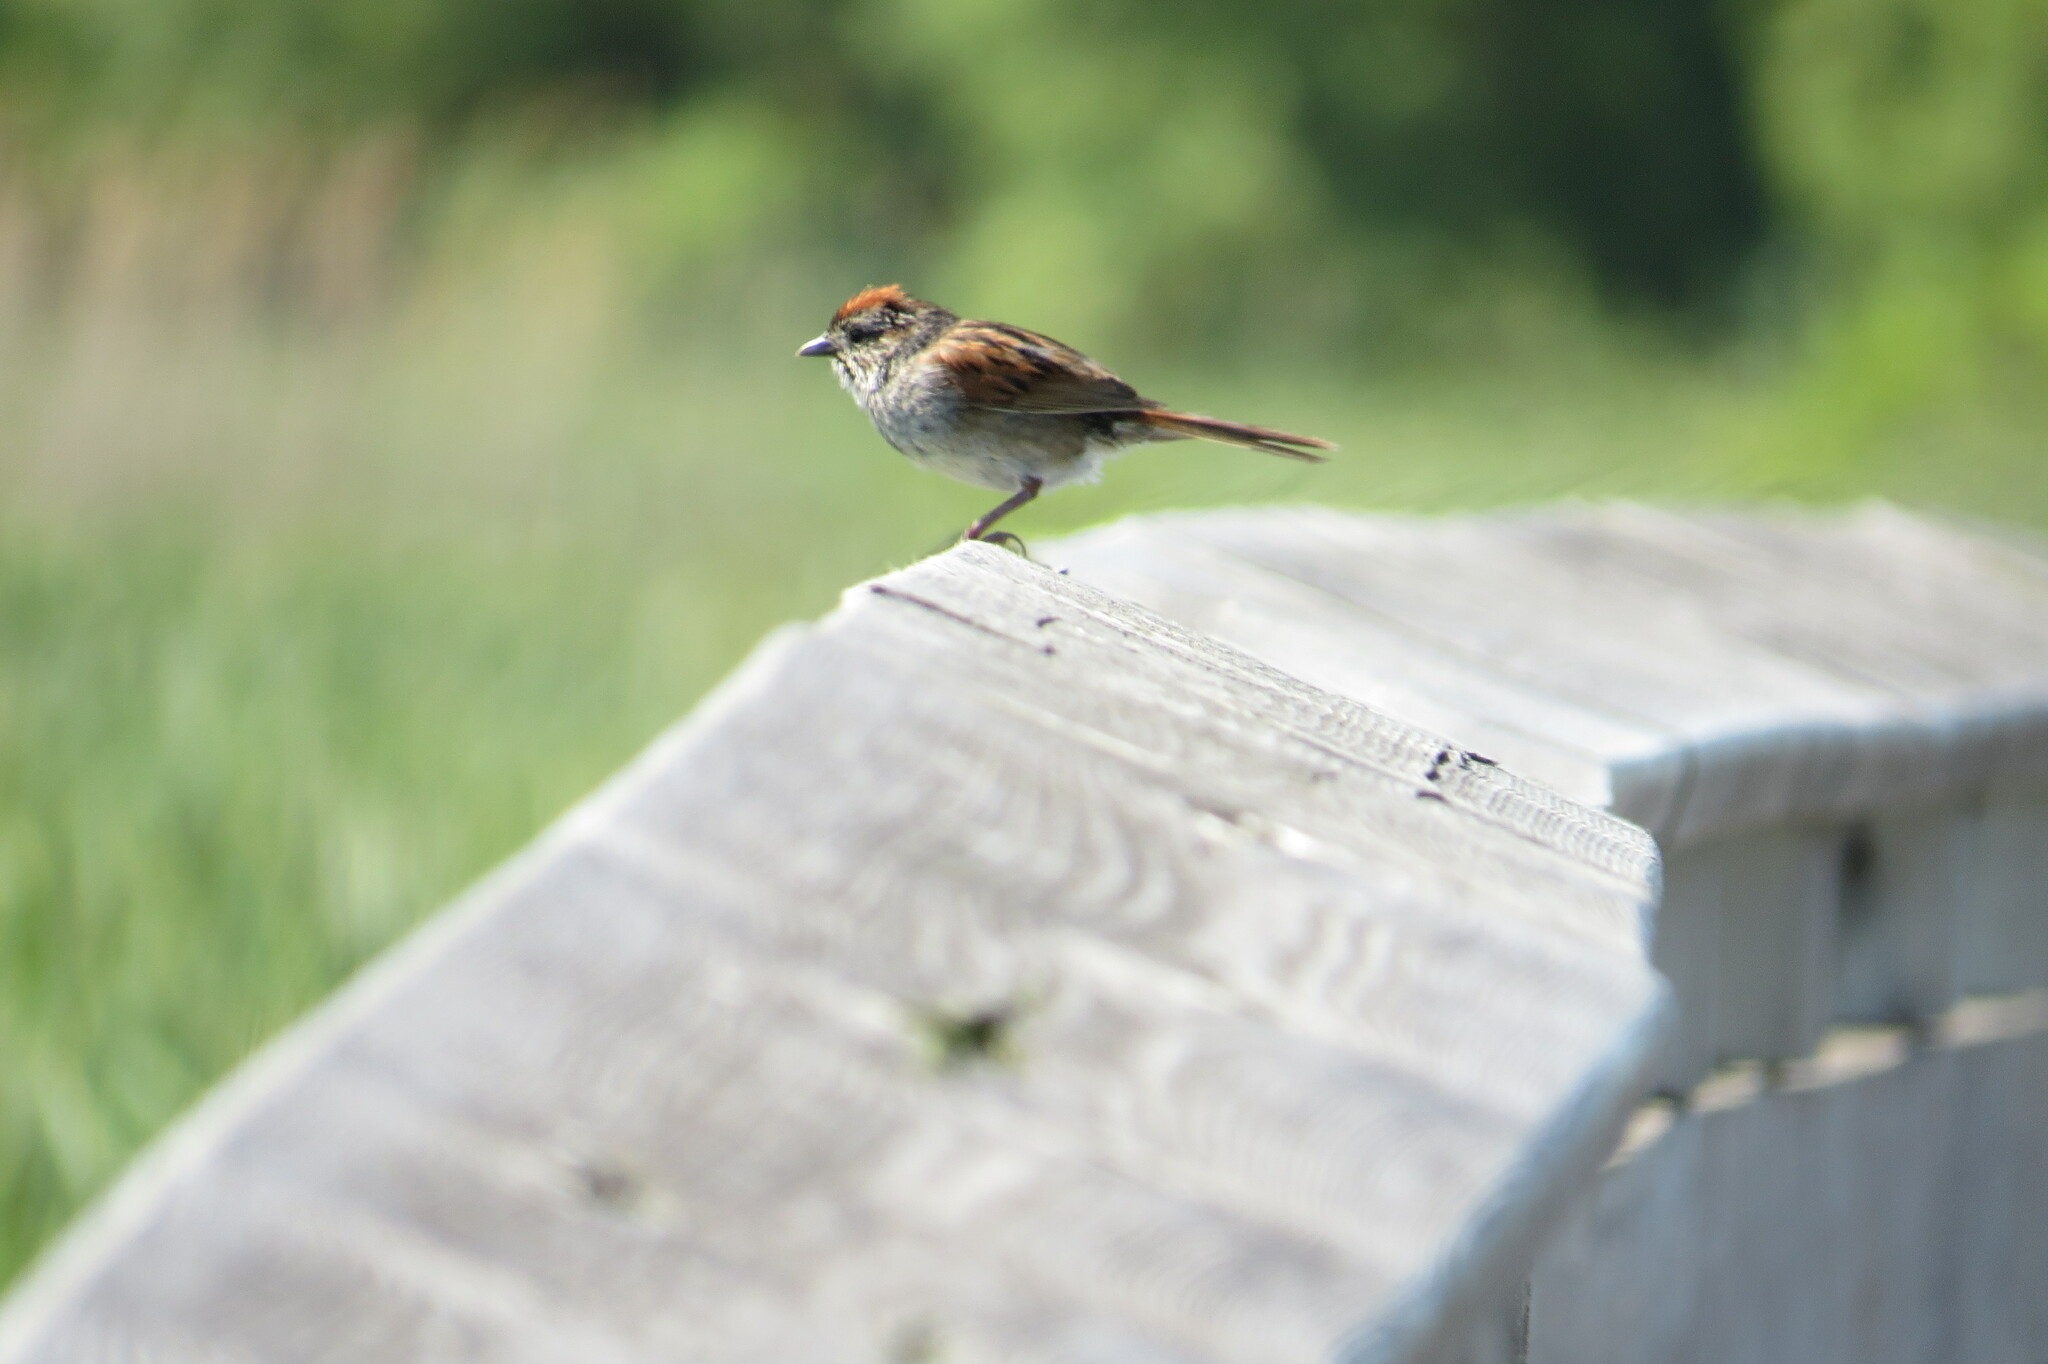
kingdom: Animalia
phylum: Chordata
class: Aves
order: Passeriformes
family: Passerellidae
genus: Melospiza
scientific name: Melospiza georgiana
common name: Swamp sparrow
